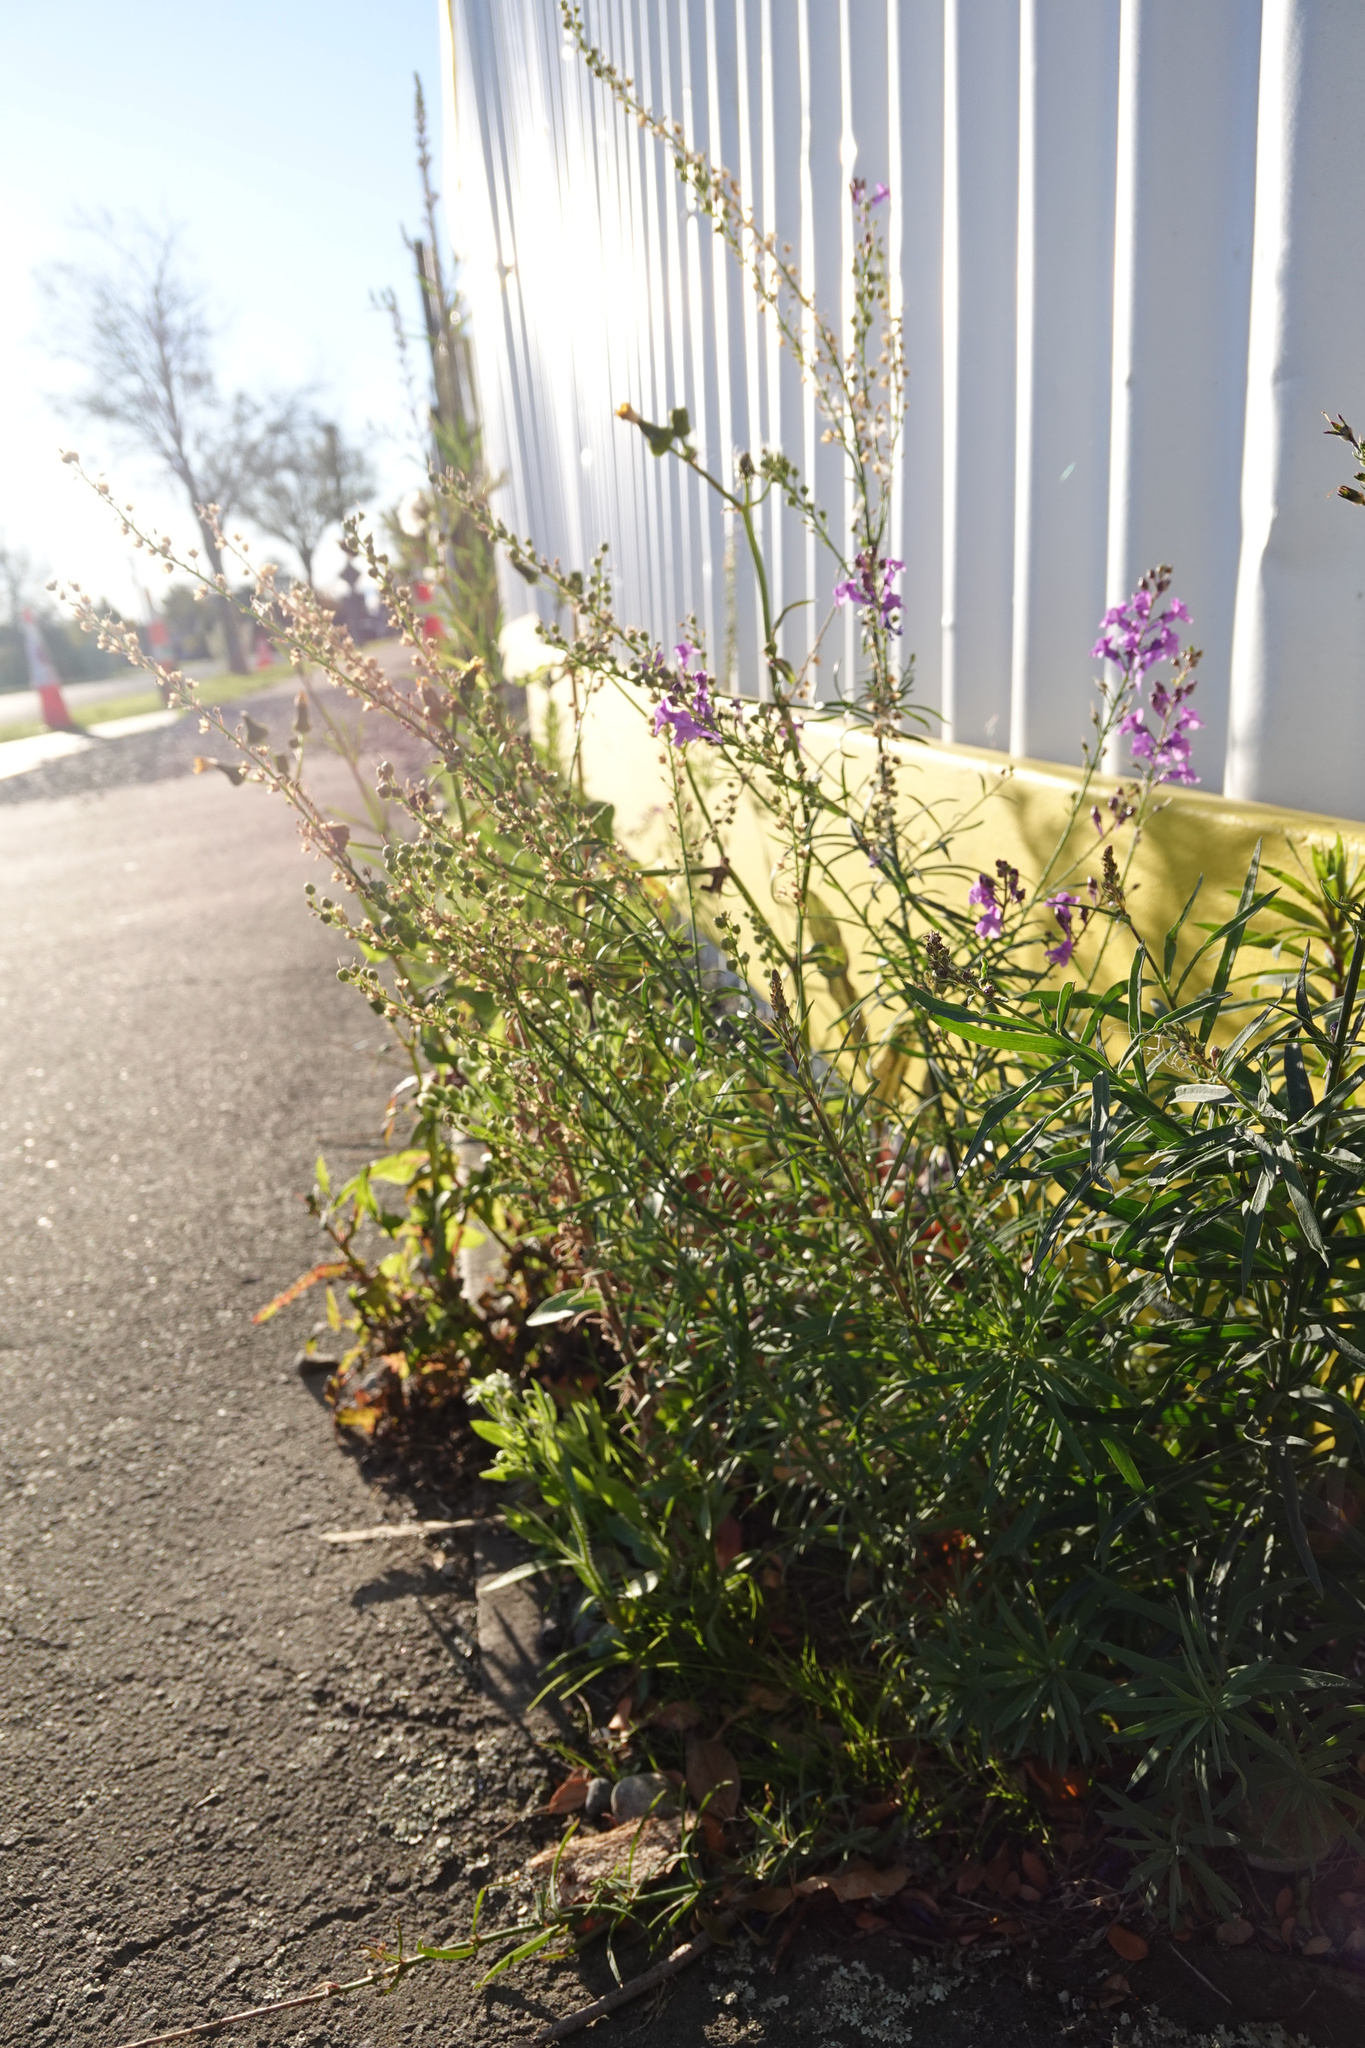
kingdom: Plantae
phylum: Tracheophyta
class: Magnoliopsida
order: Lamiales
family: Plantaginaceae
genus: Linaria
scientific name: Linaria purpurea
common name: Purple toadflax
